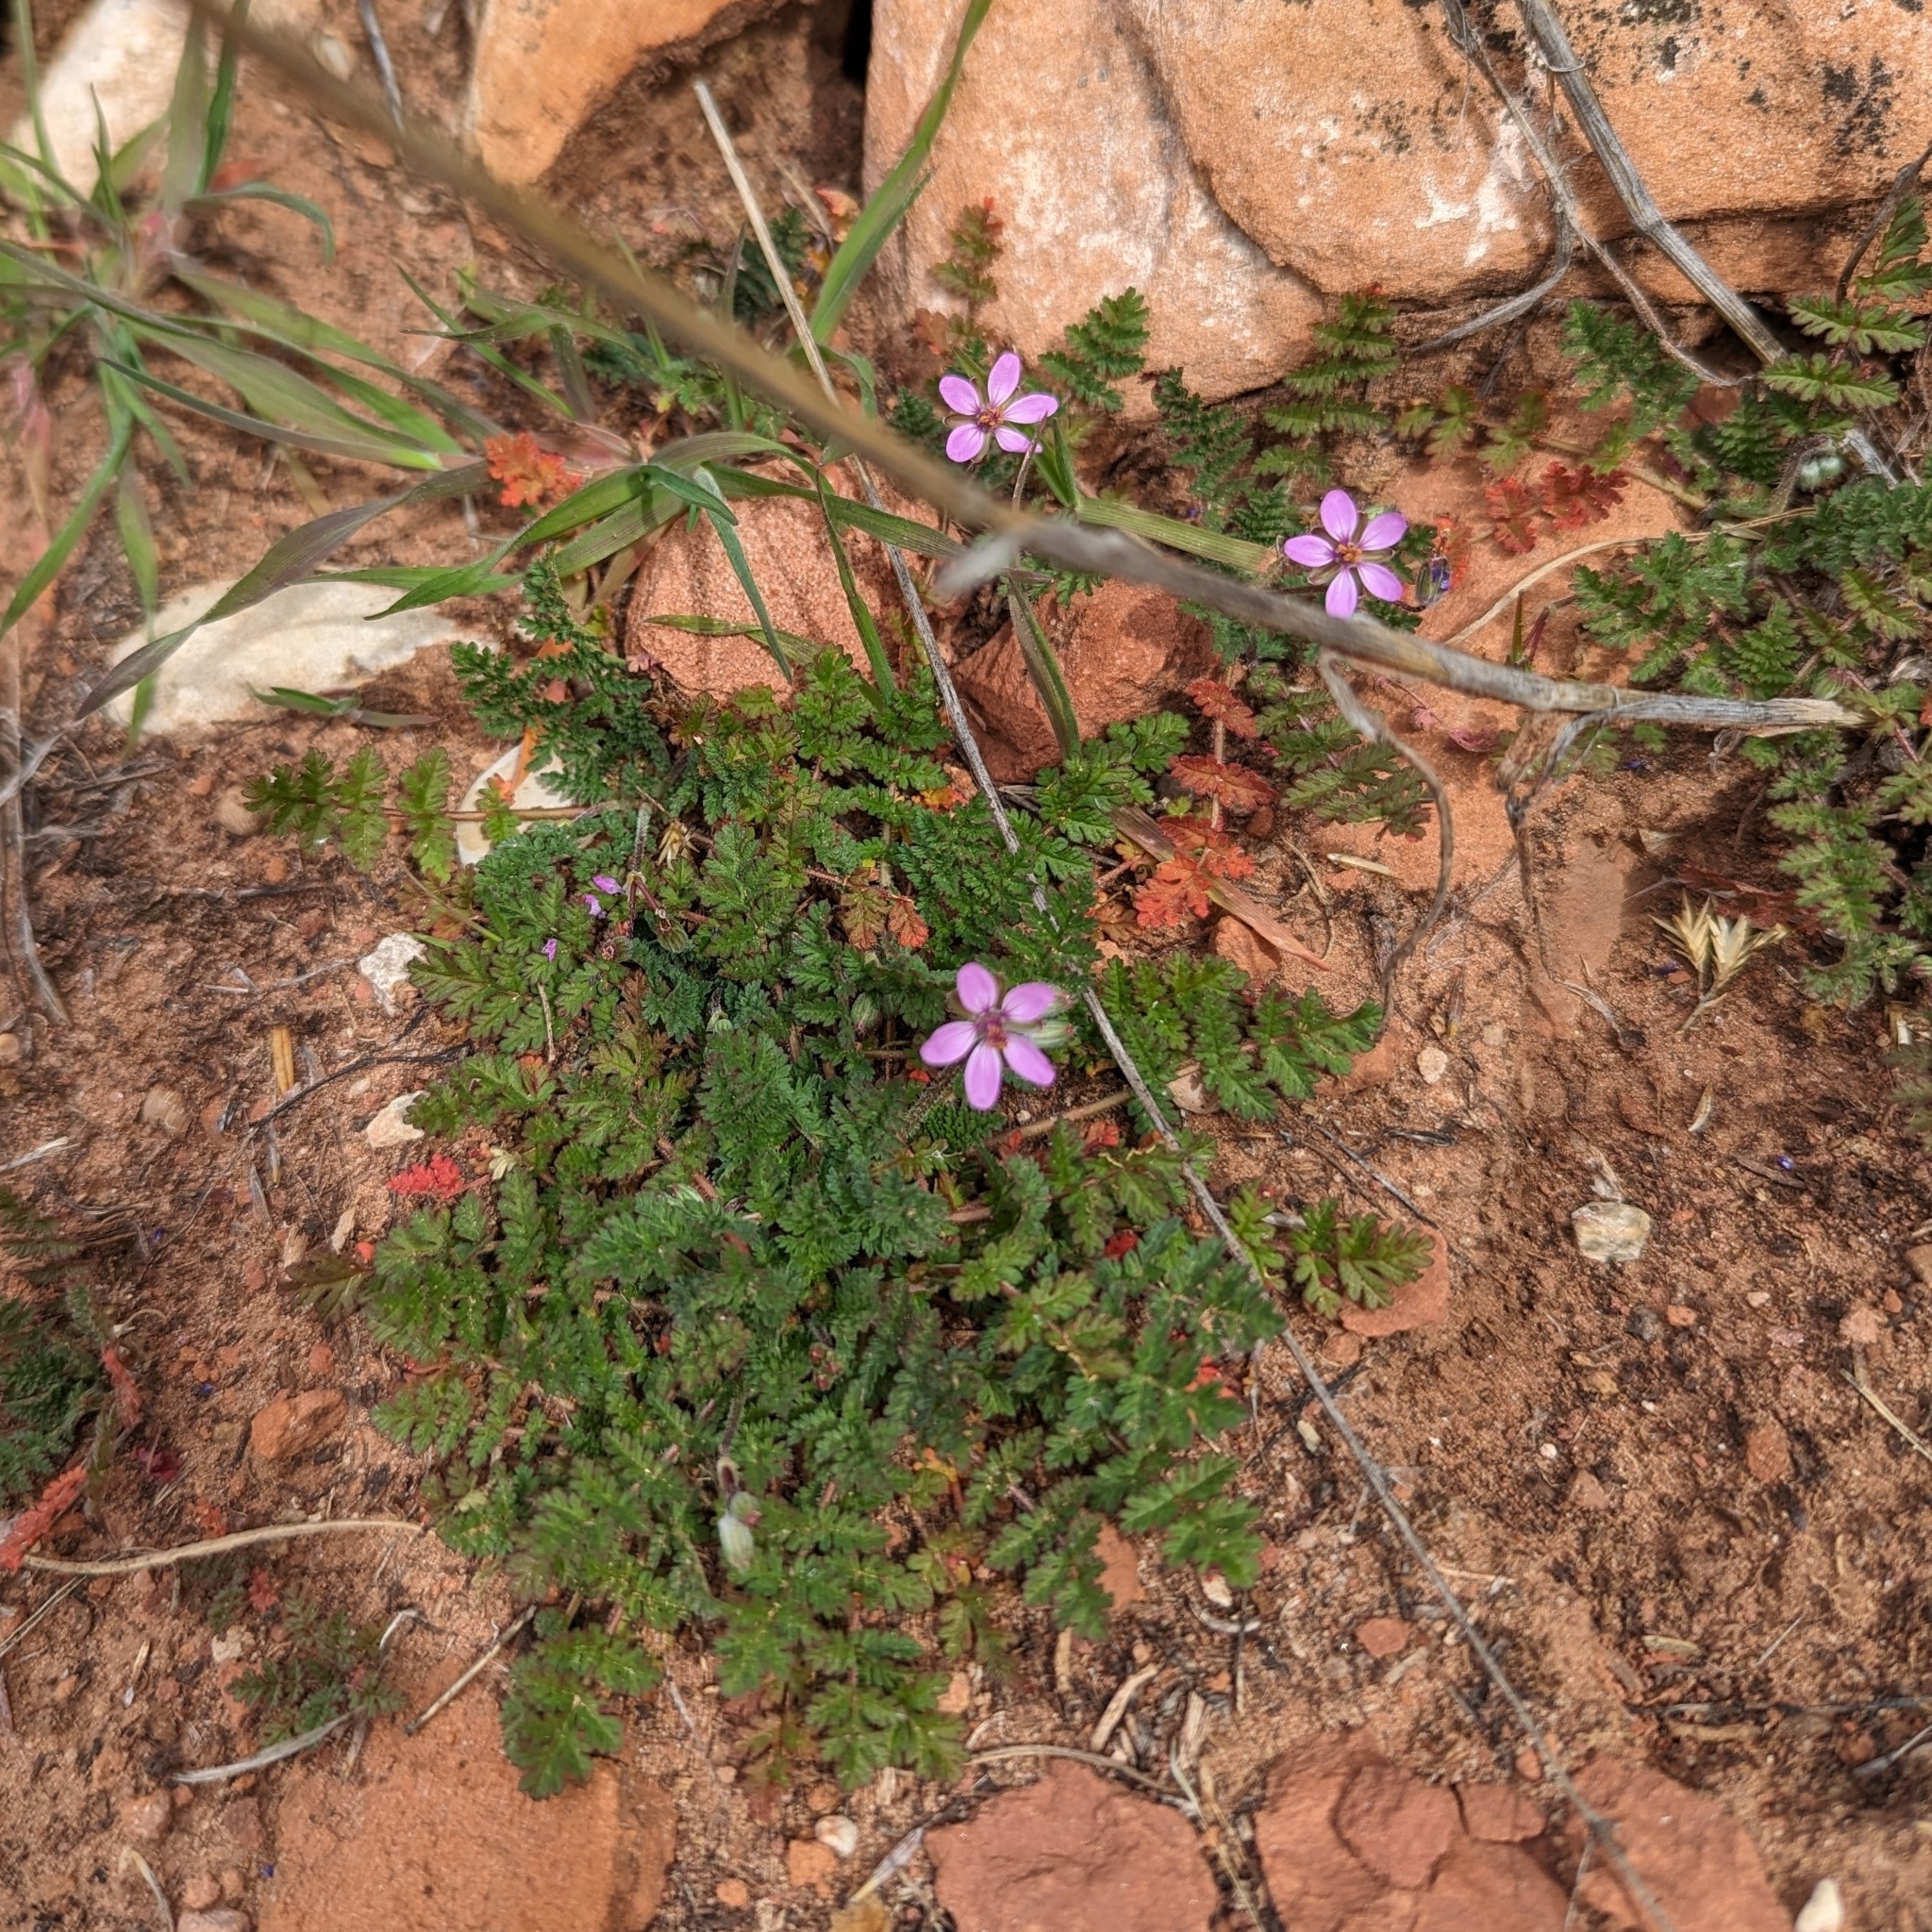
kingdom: Plantae
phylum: Tracheophyta
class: Magnoliopsida
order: Geraniales
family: Geraniaceae
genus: Erodium
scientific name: Erodium cicutarium
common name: Common stork's-bill
